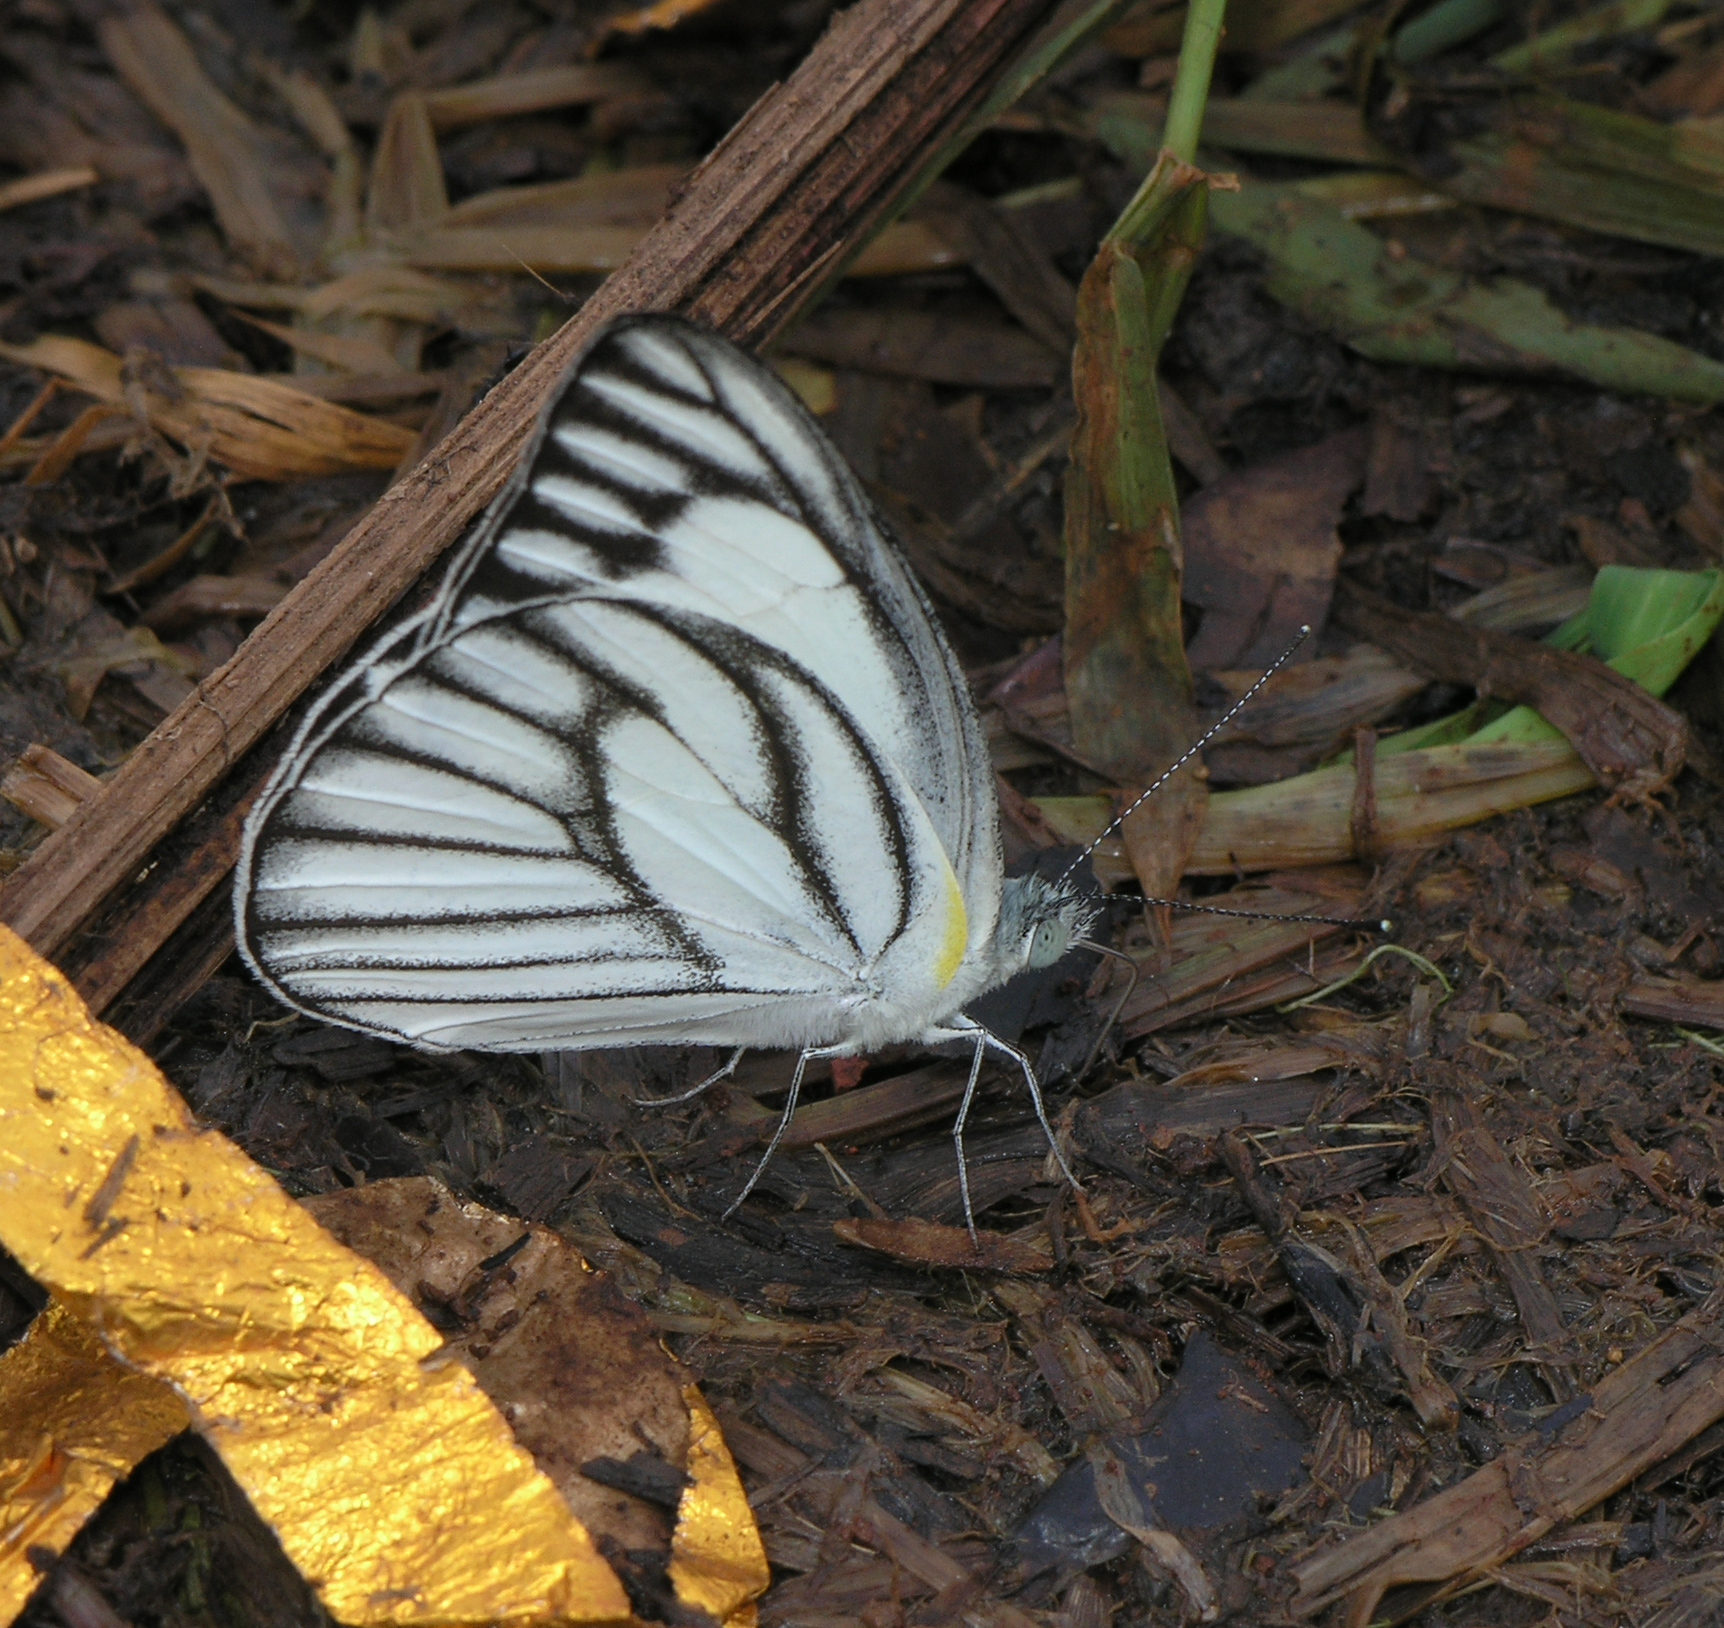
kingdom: Animalia
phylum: Arthropoda
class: Insecta
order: Lepidoptera
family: Pieridae
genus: Appias
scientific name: Appias libythea
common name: Striped albatross
